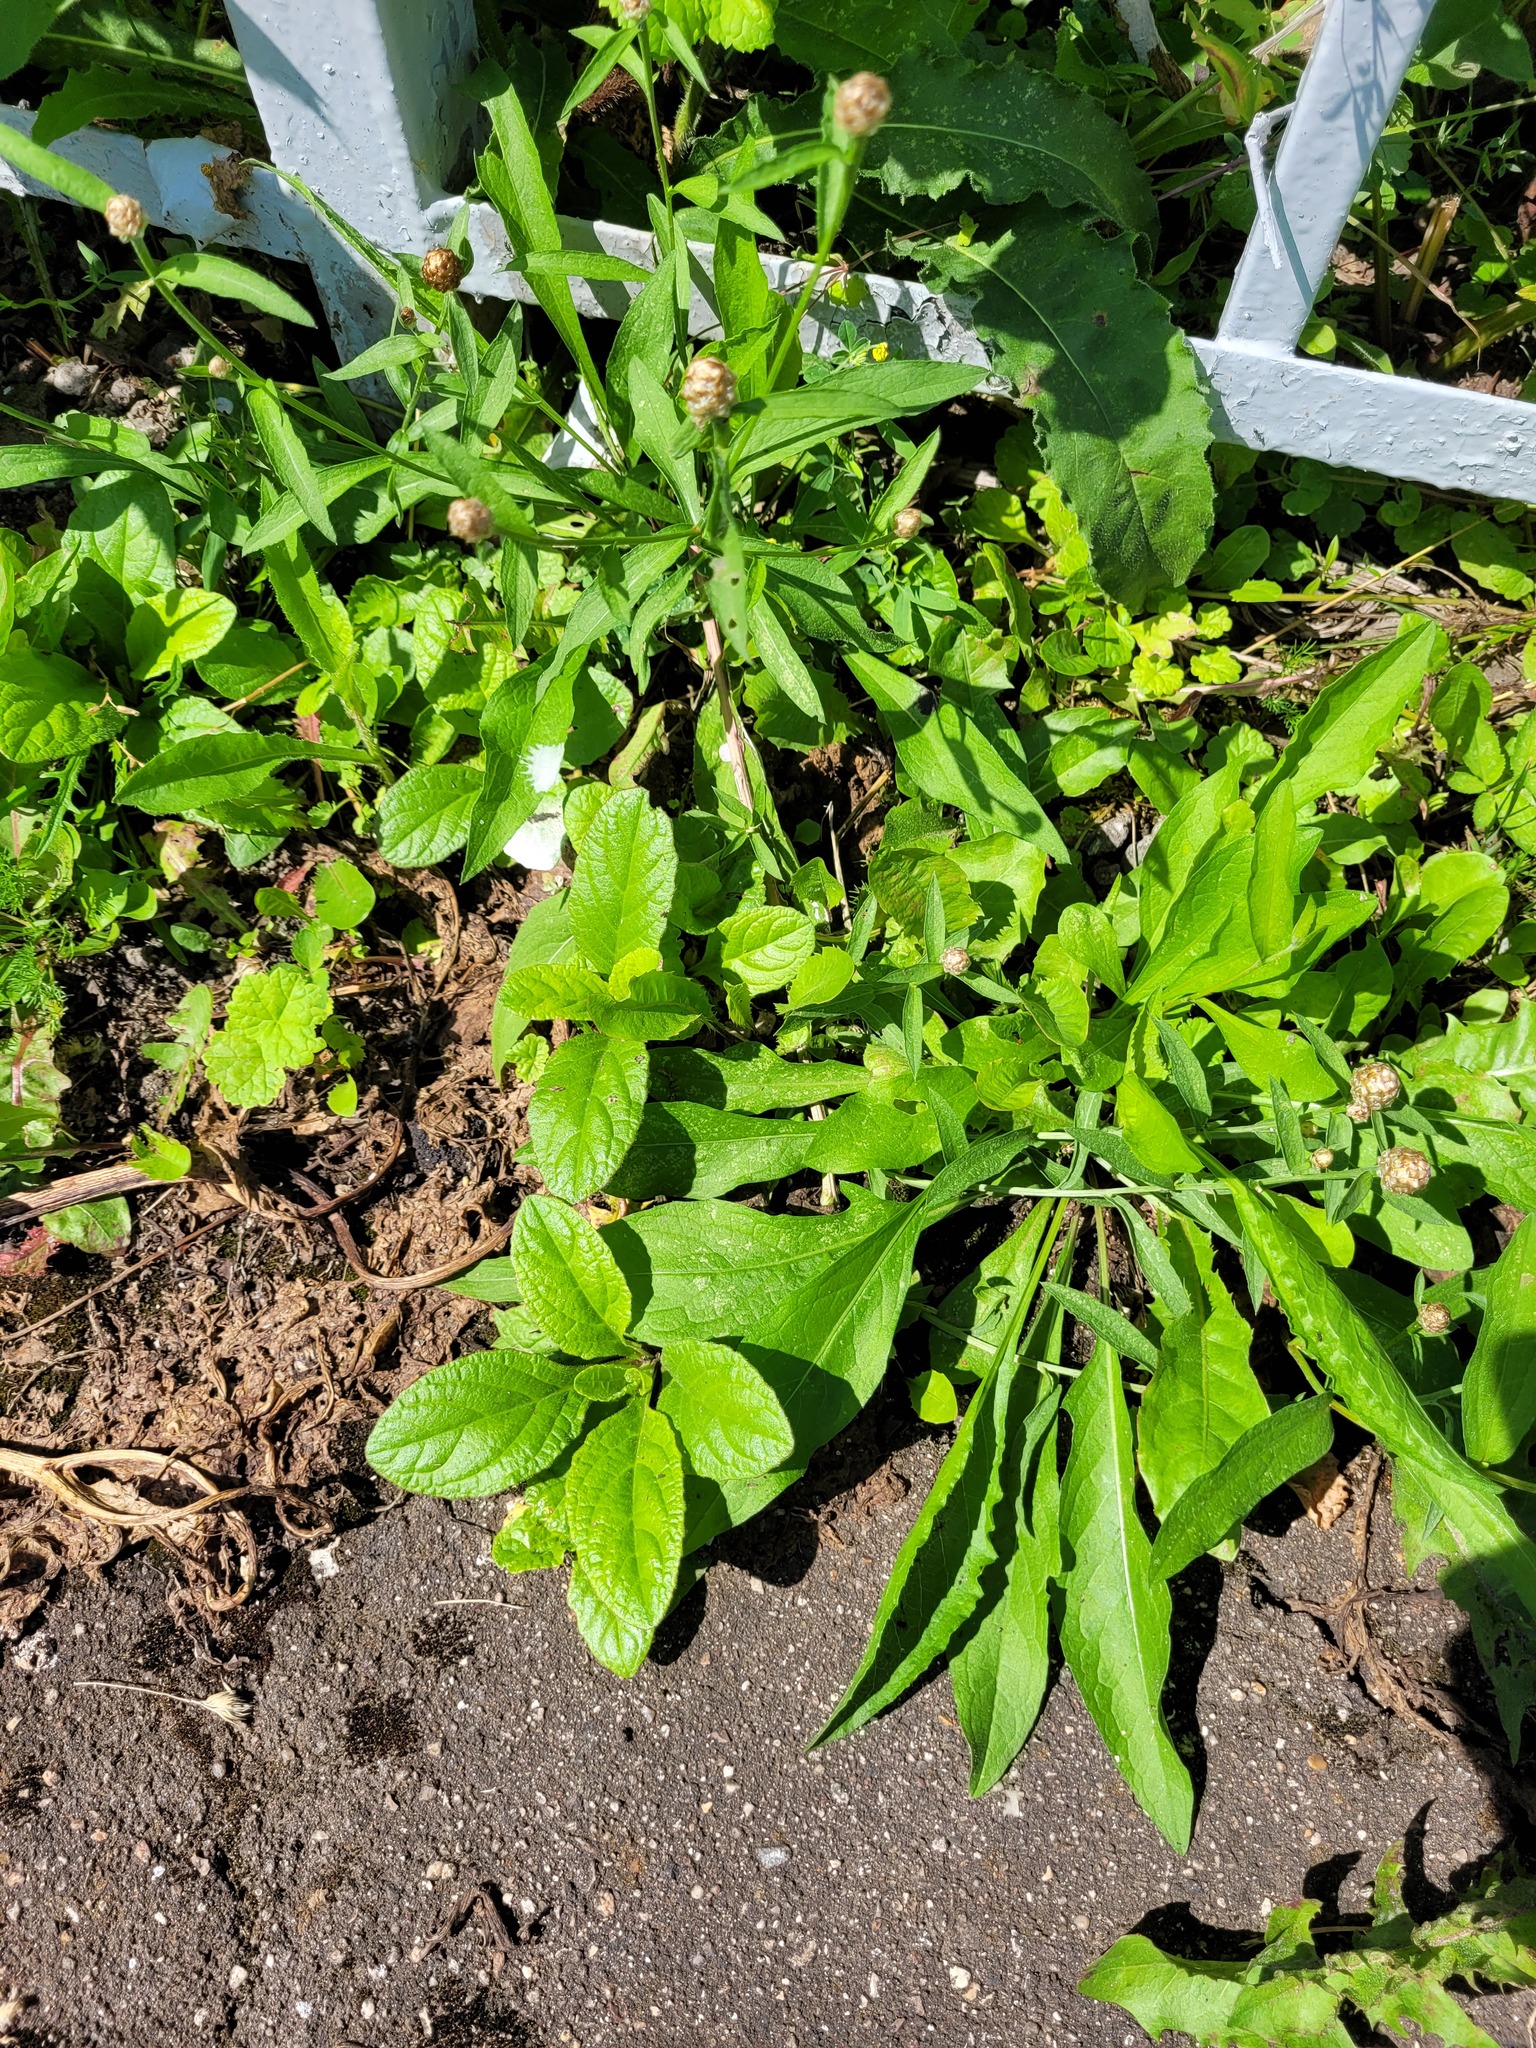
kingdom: Plantae
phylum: Tracheophyta
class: Magnoliopsida
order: Lamiales
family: Lamiaceae
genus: Ajuga
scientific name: Ajuga reptans
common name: Bugle
